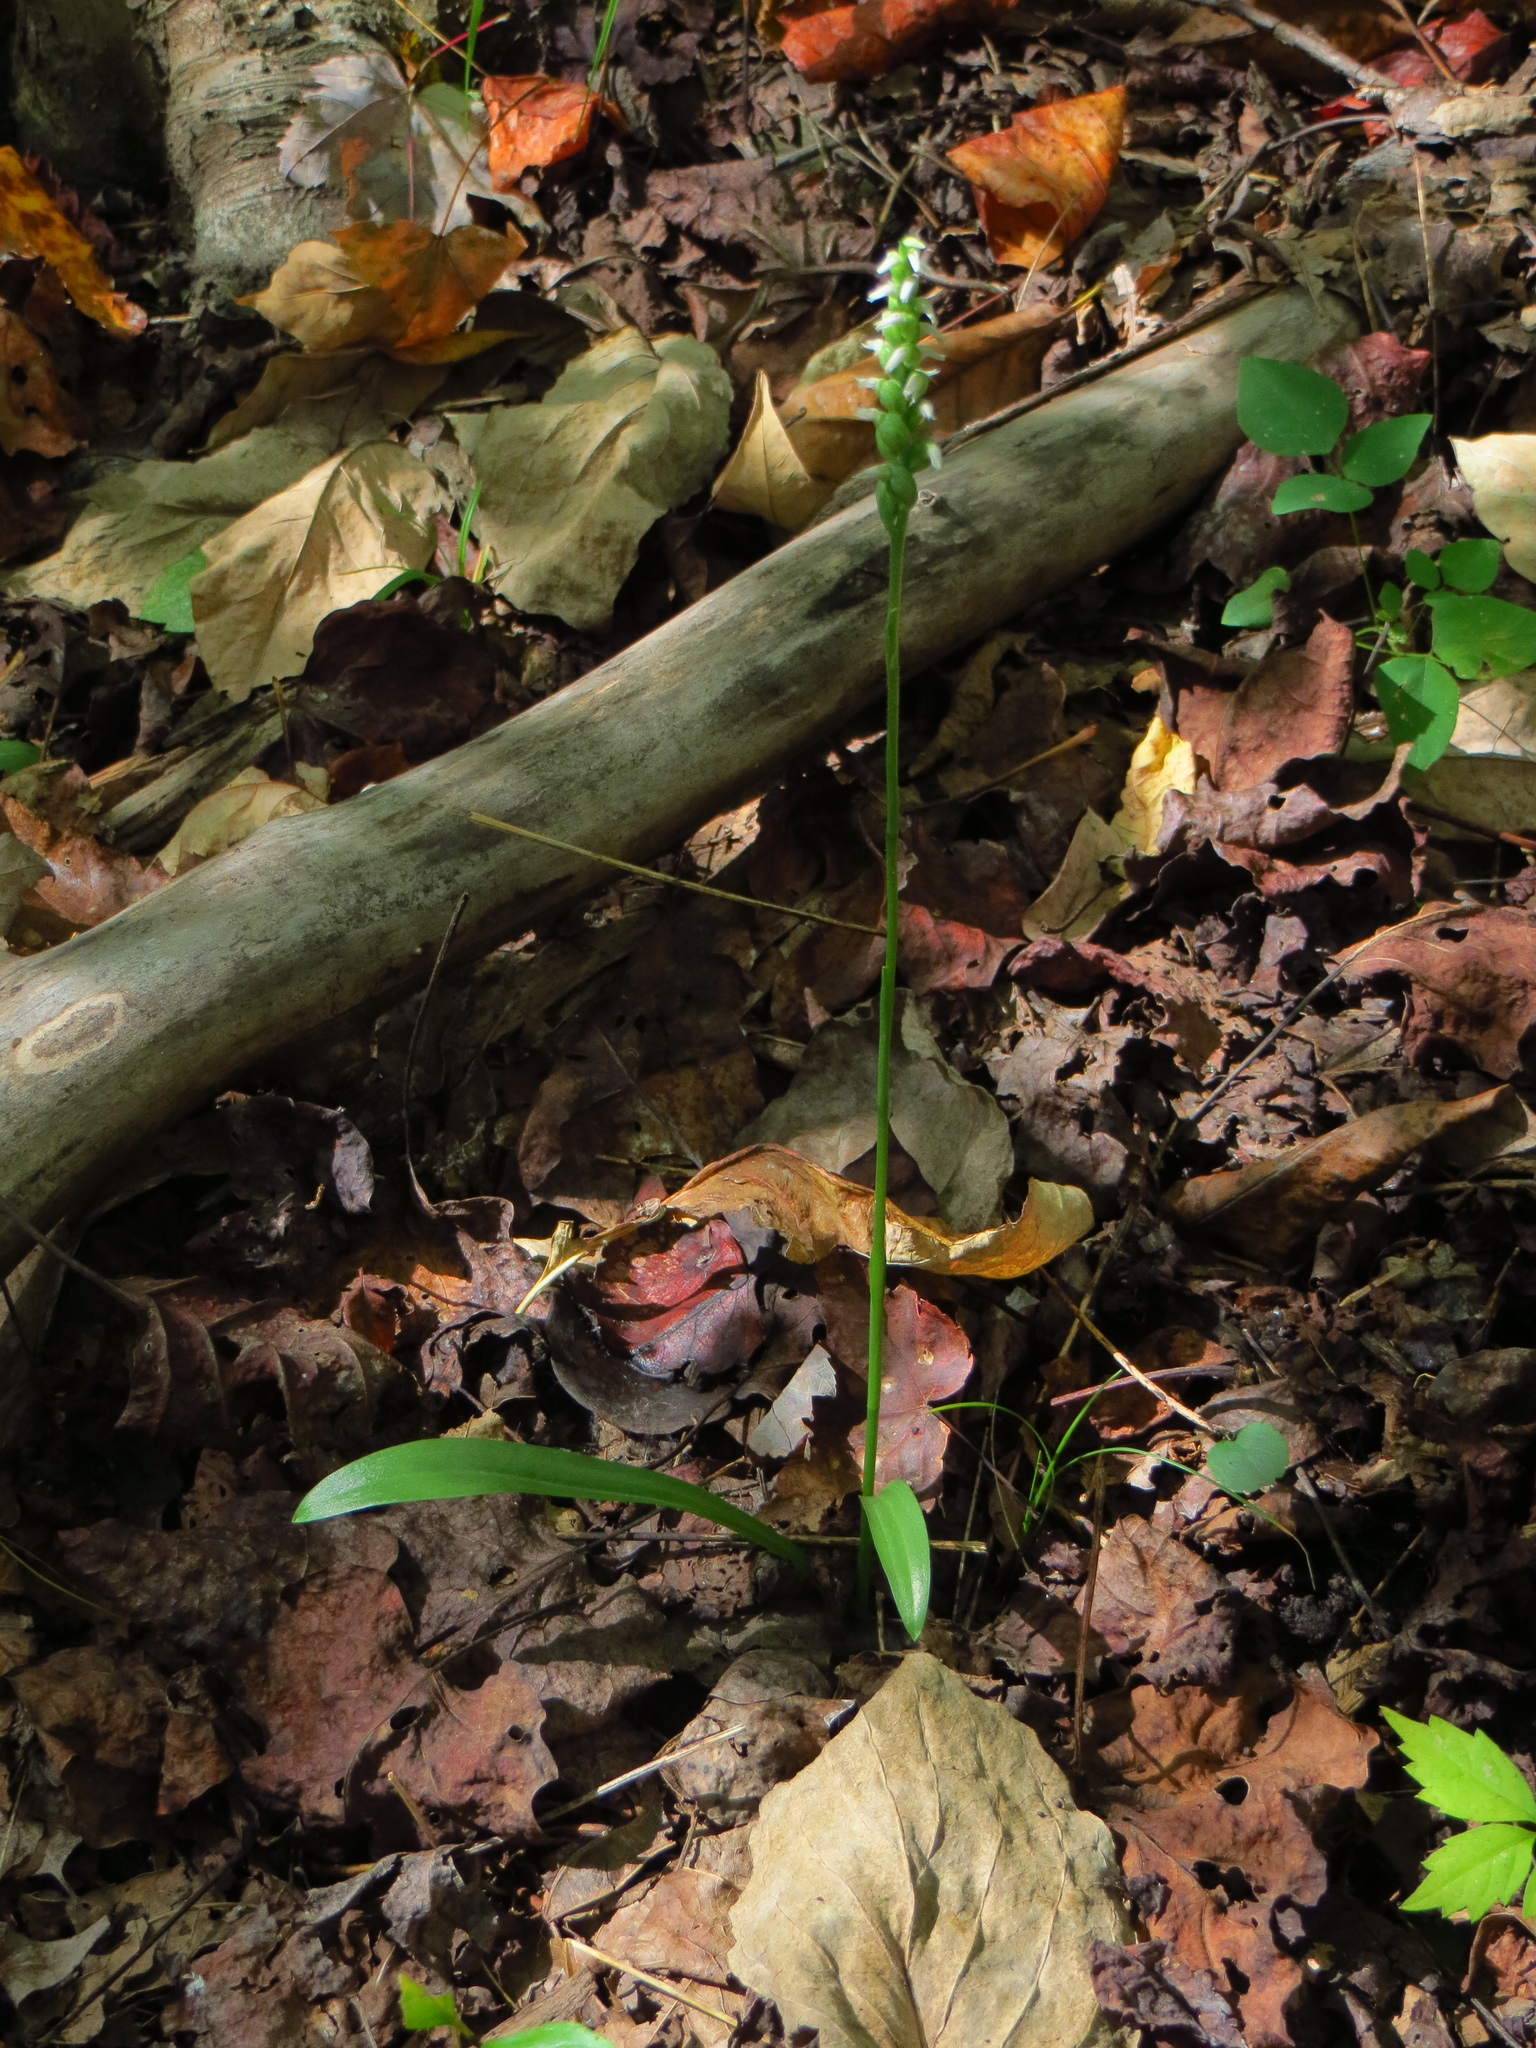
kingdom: Plantae
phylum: Tracheophyta
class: Liliopsida
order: Asparagales
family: Orchidaceae
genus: Spiranthes
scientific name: Spiranthes ovalis
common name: October ladies'-tresses
